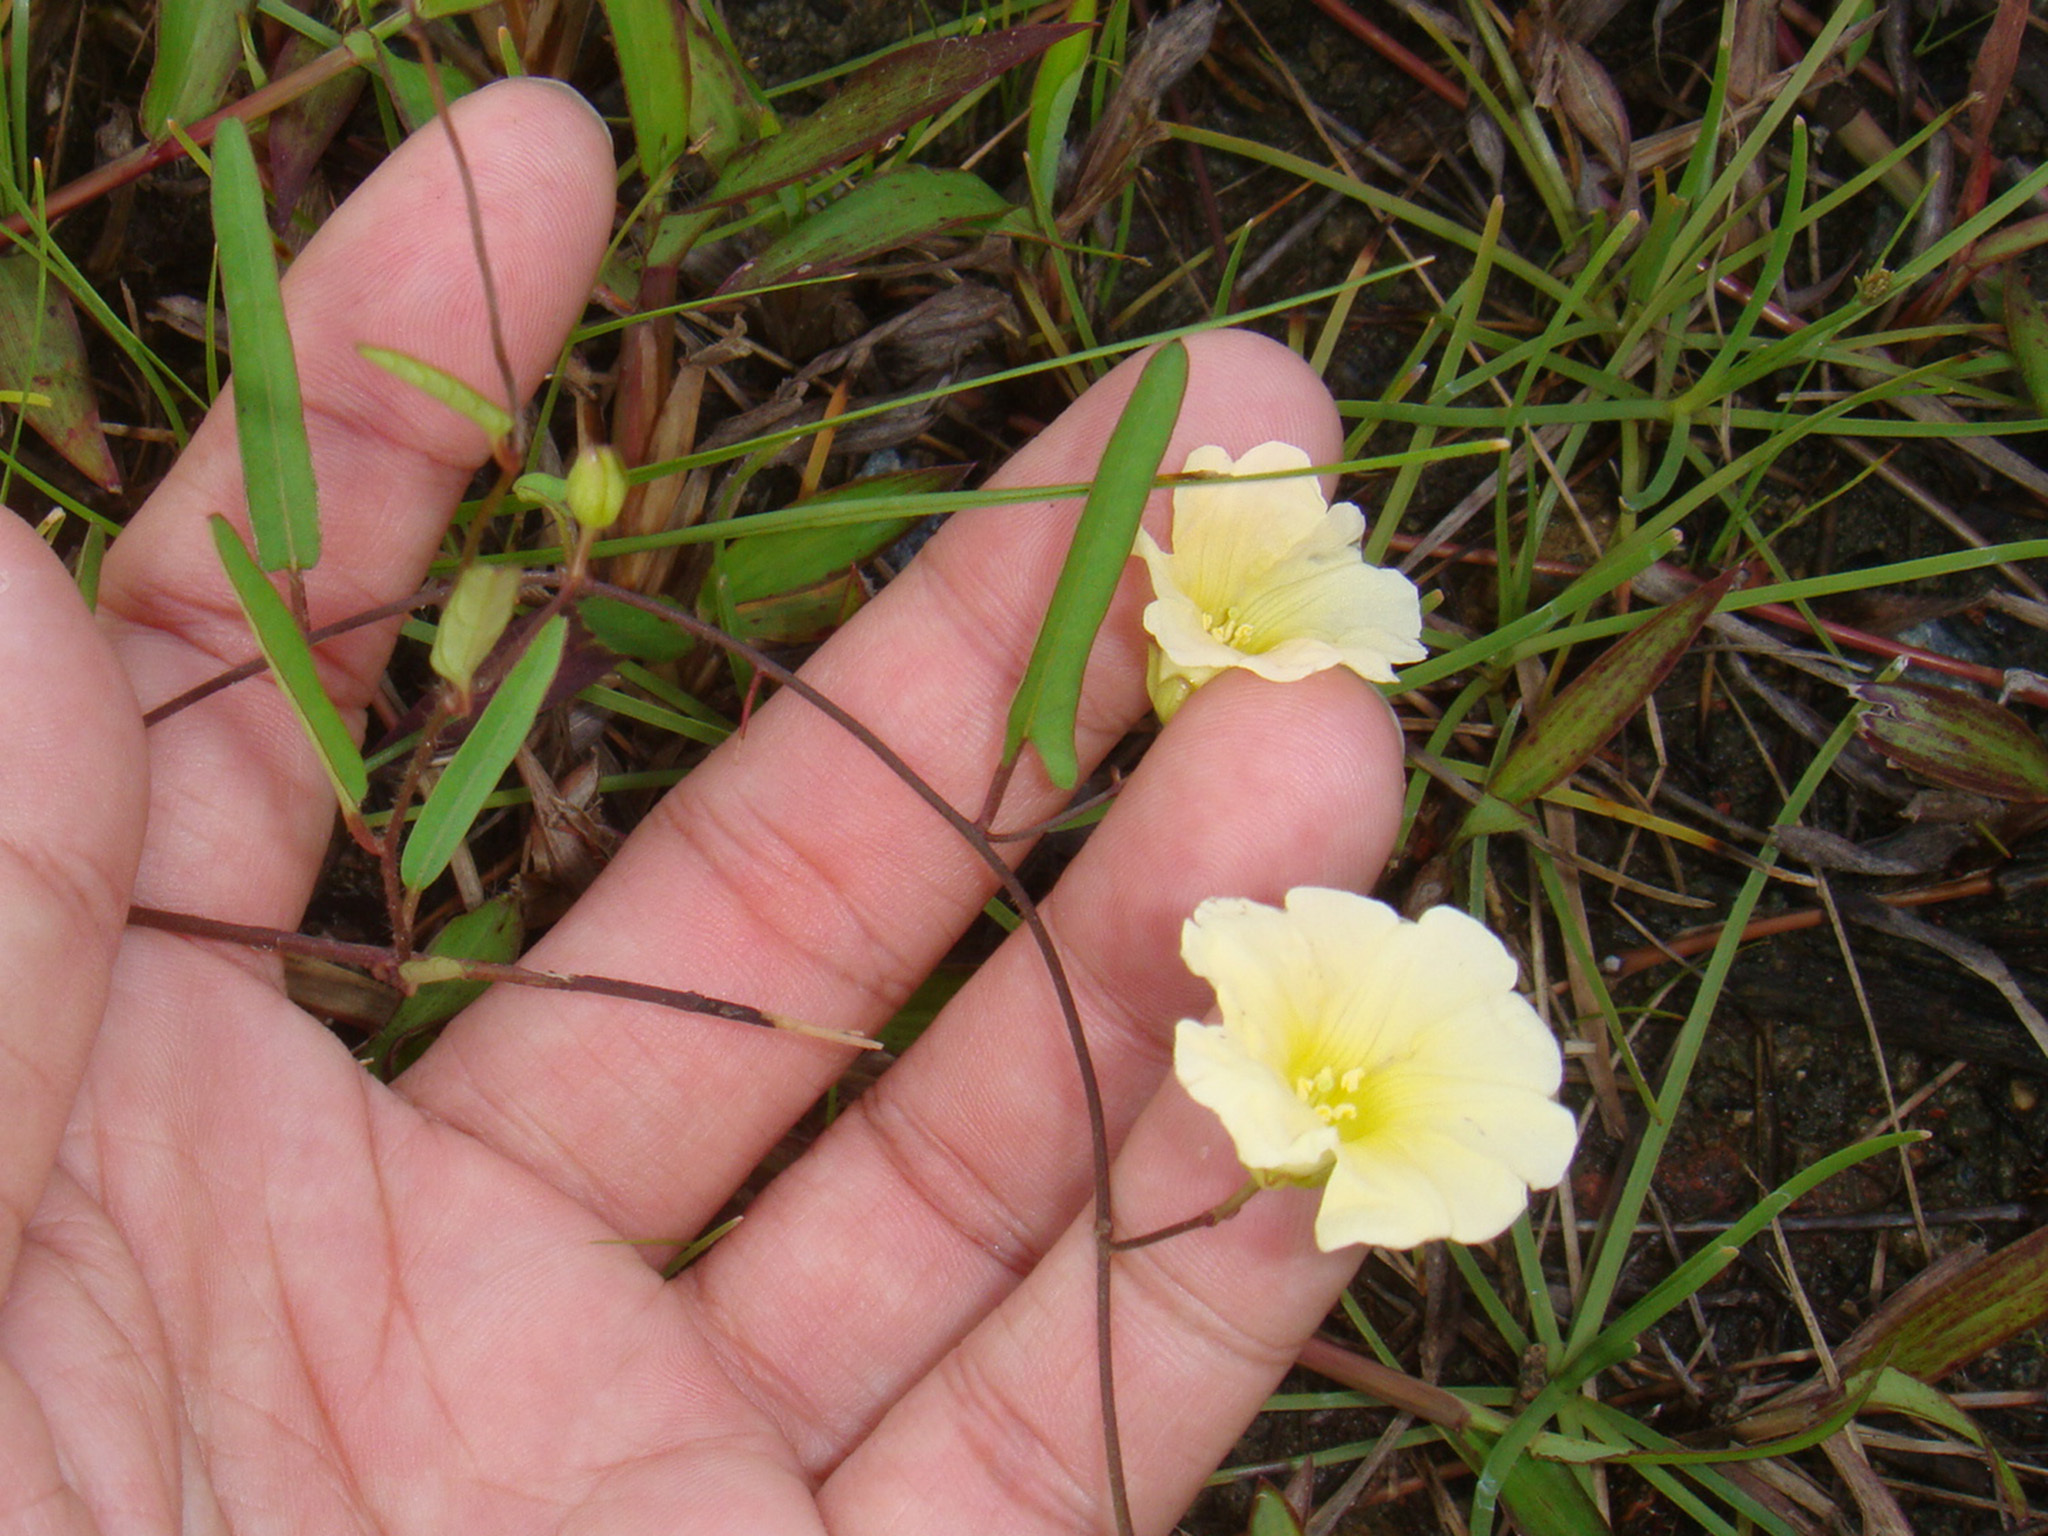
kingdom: Plantae
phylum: Tracheophyta
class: Magnoliopsida
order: Solanales
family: Convolvulaceae
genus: Merremia
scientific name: Merremia hirta
